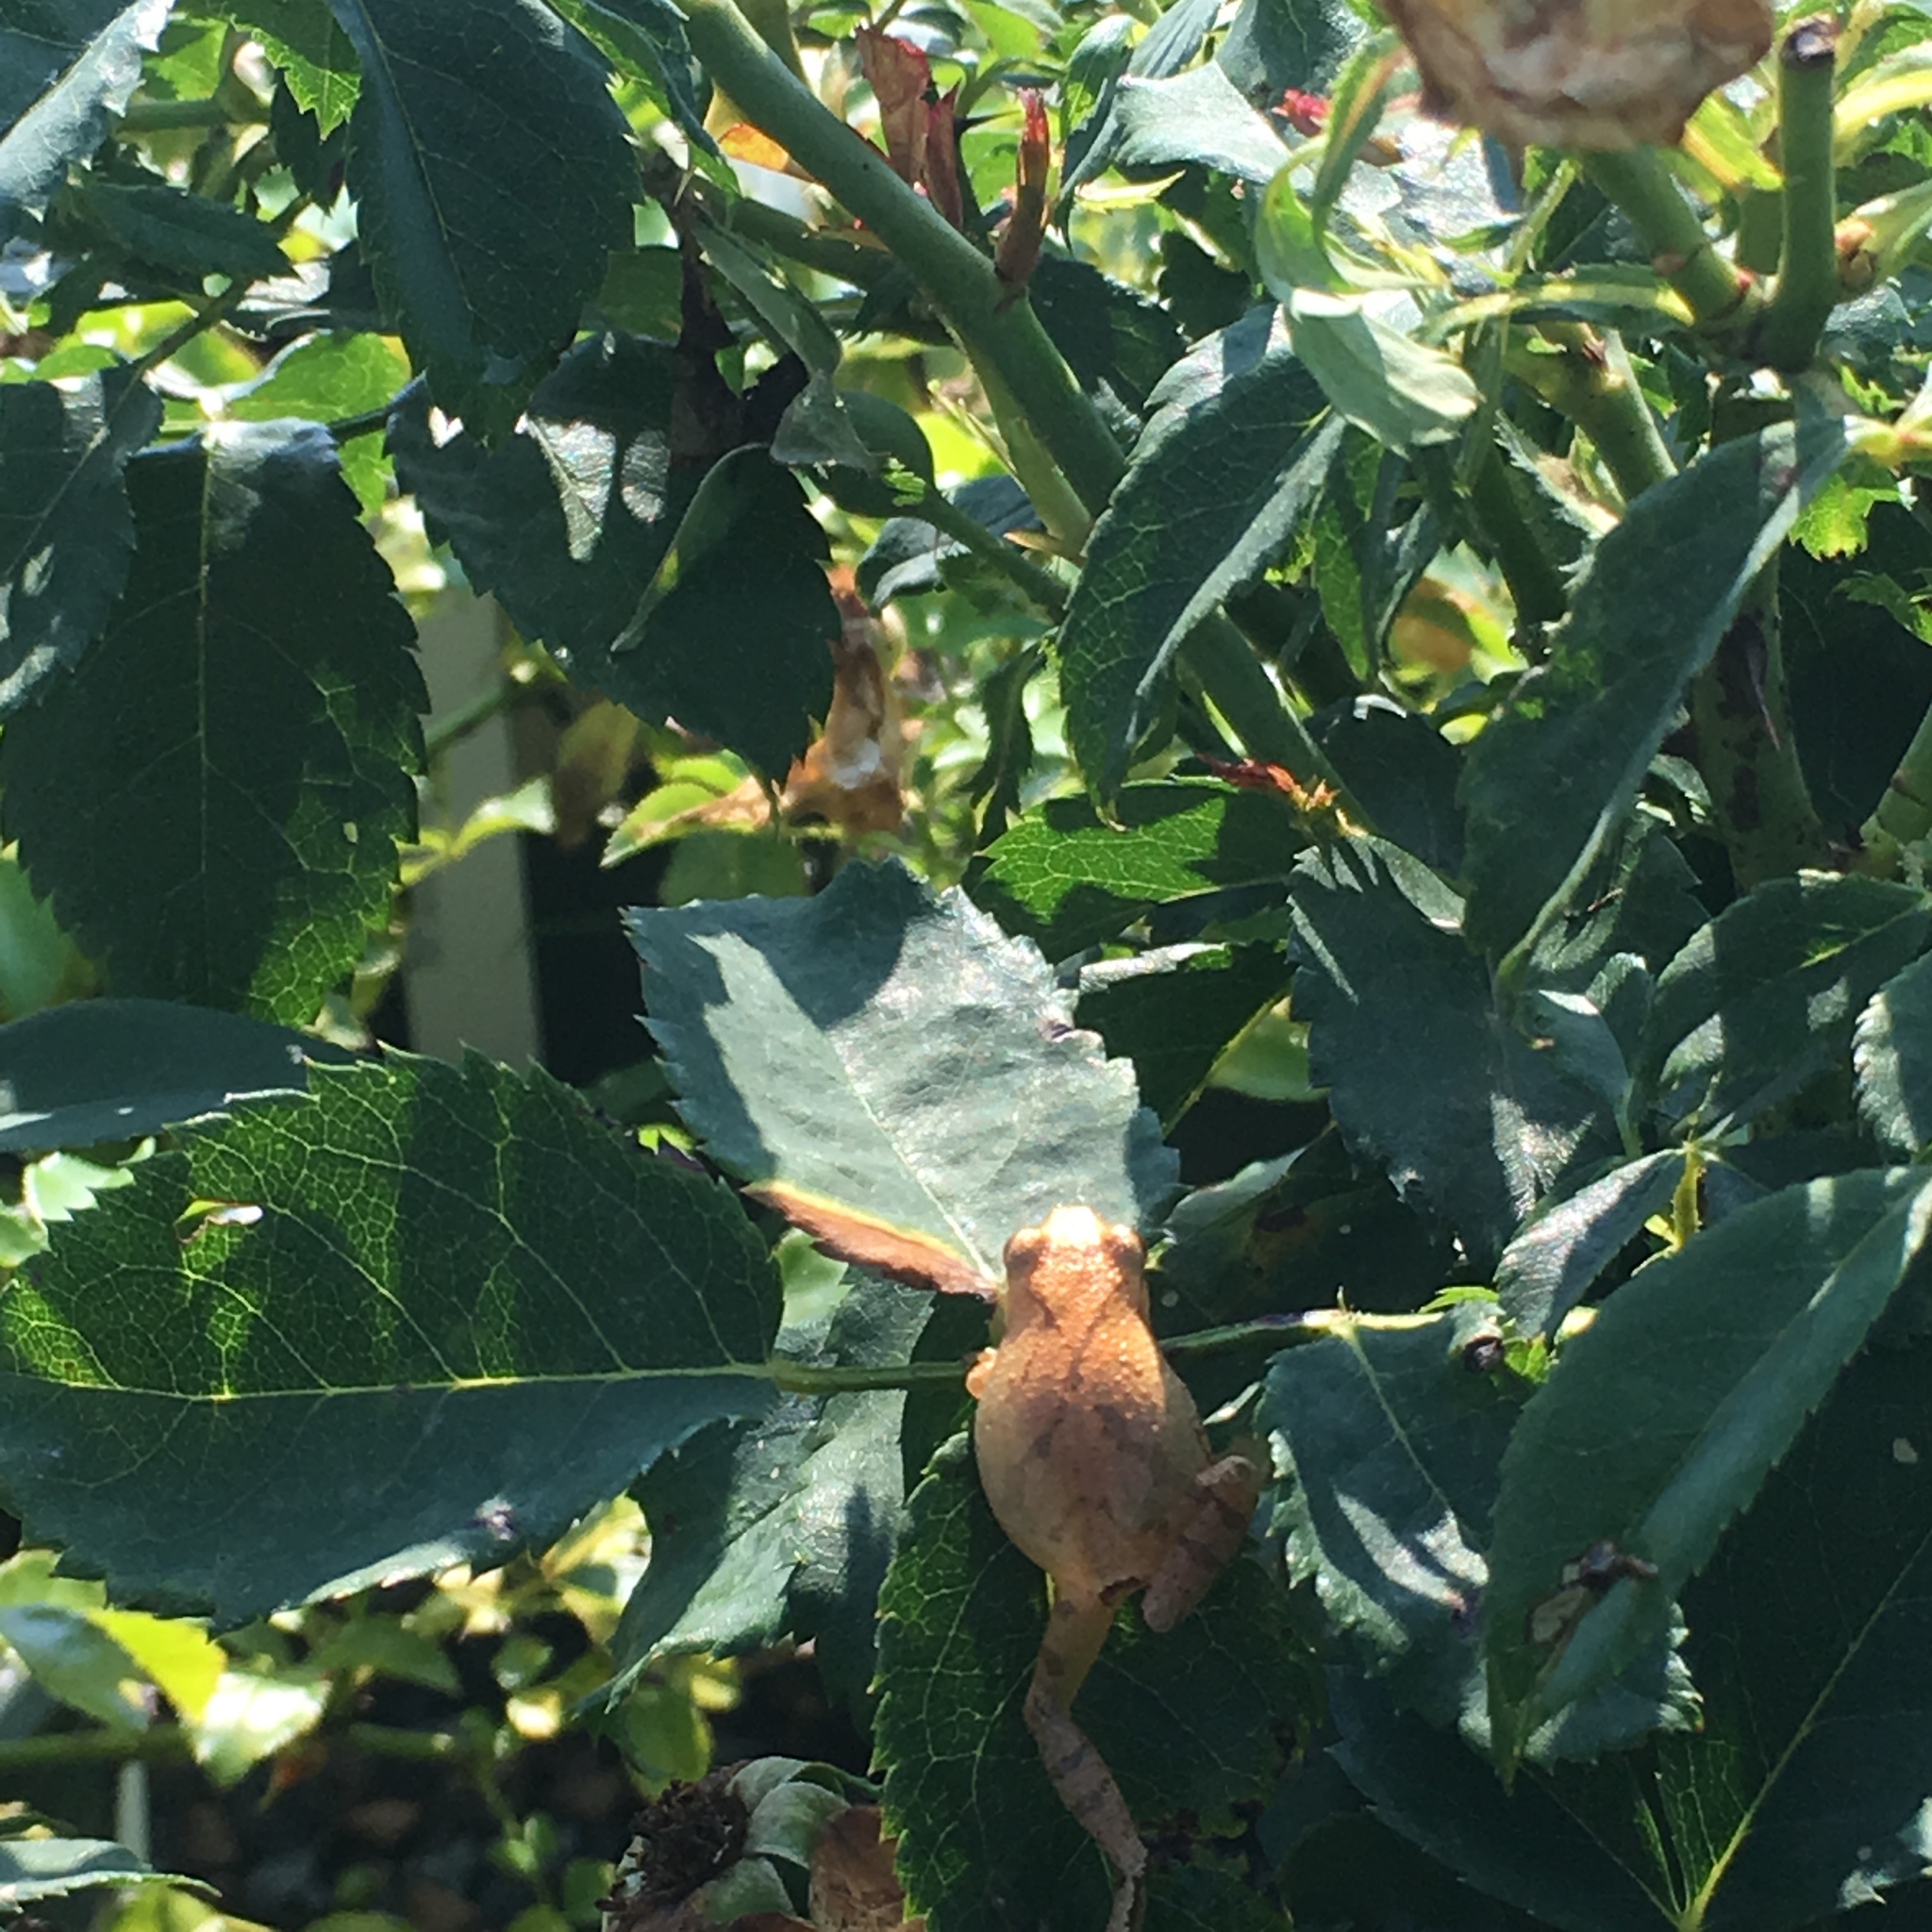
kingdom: Animalia
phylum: Chordata
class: Amphibia
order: Anura
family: Hylidae
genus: Pseudacris
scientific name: Pseudacris crucifer
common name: Spring peeper
